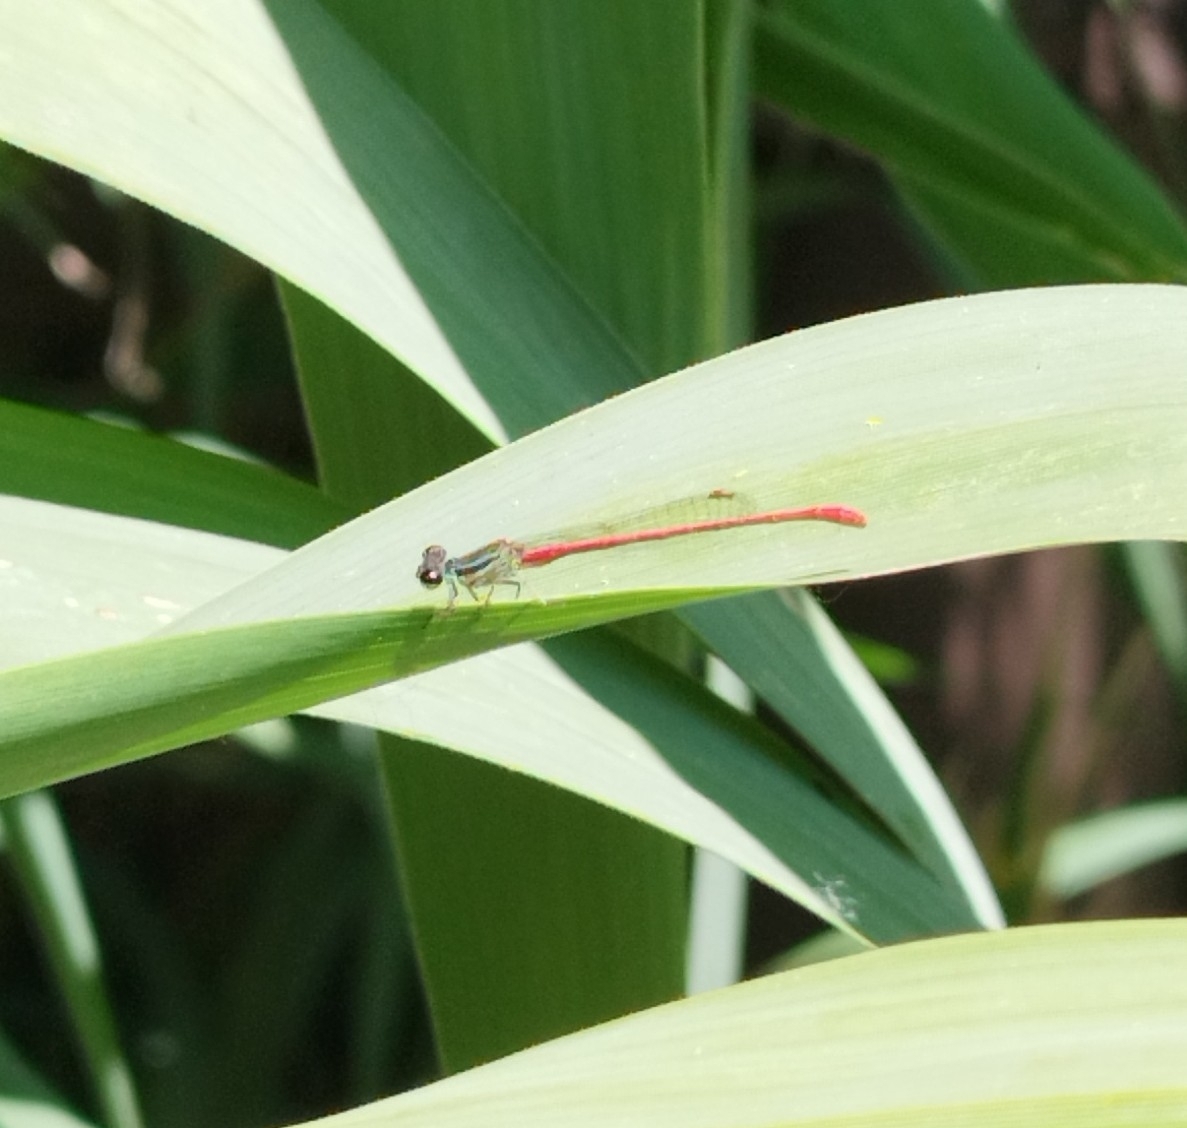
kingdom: Animalia
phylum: Arthropoda
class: Insecta
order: Odonata
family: Coenagrionidae
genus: Telebasis
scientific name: Telebasis willinki
